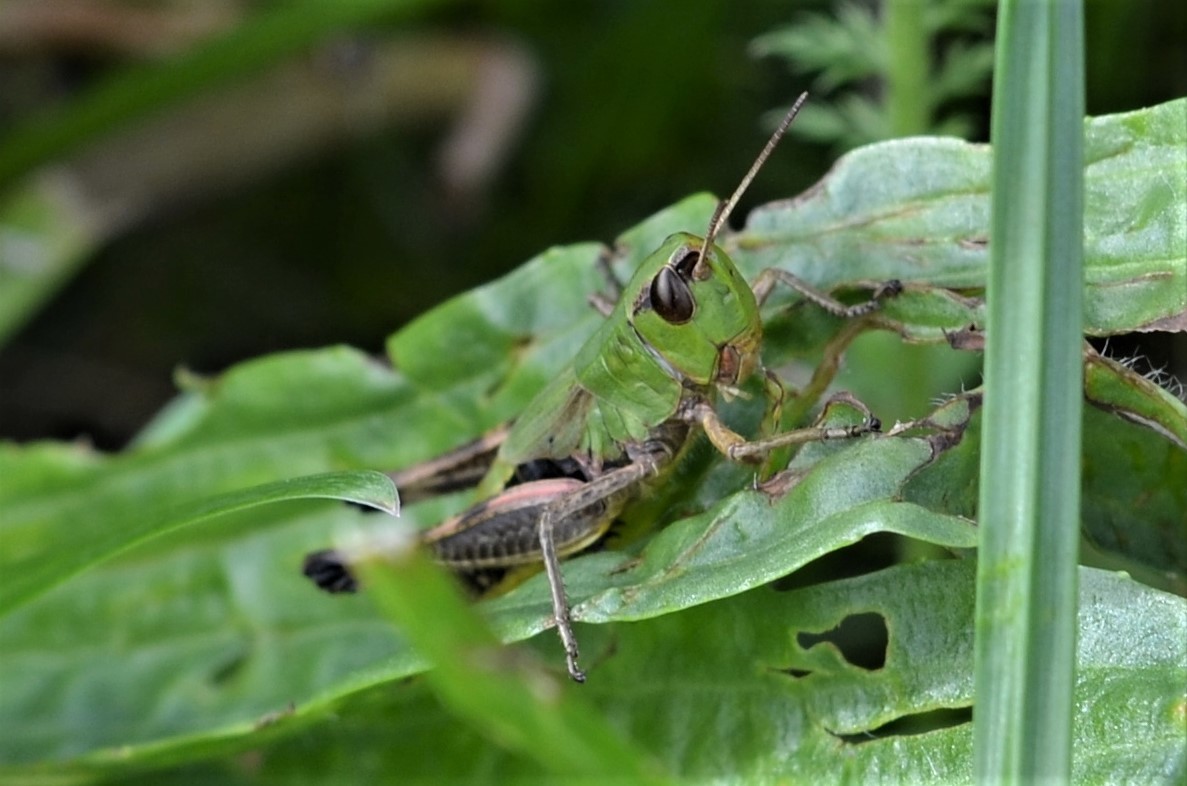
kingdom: Animalia
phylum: Arthropoda
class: Insecta
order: Orthoptera
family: Acrididae
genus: Pseudochorthippus
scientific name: Pseudochorthippus parallelus
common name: Meadow grasshopper
